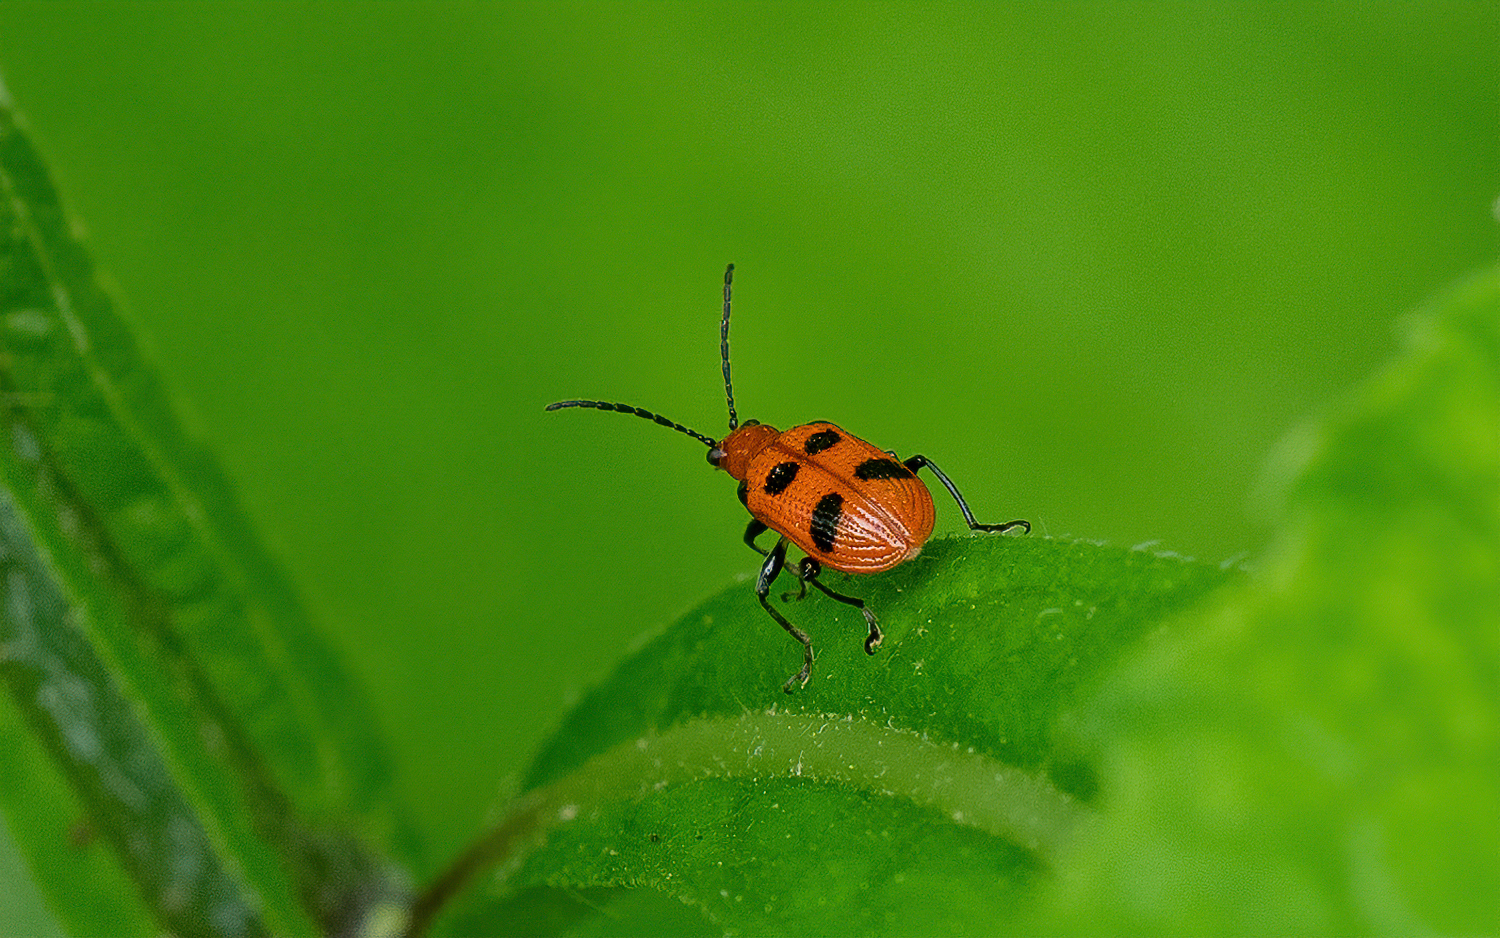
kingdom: Animalia
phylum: Arthropoda
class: Insecta
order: Coleoptera
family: Chrysomelidae
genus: Neolema
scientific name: Neolema sexpunctata
